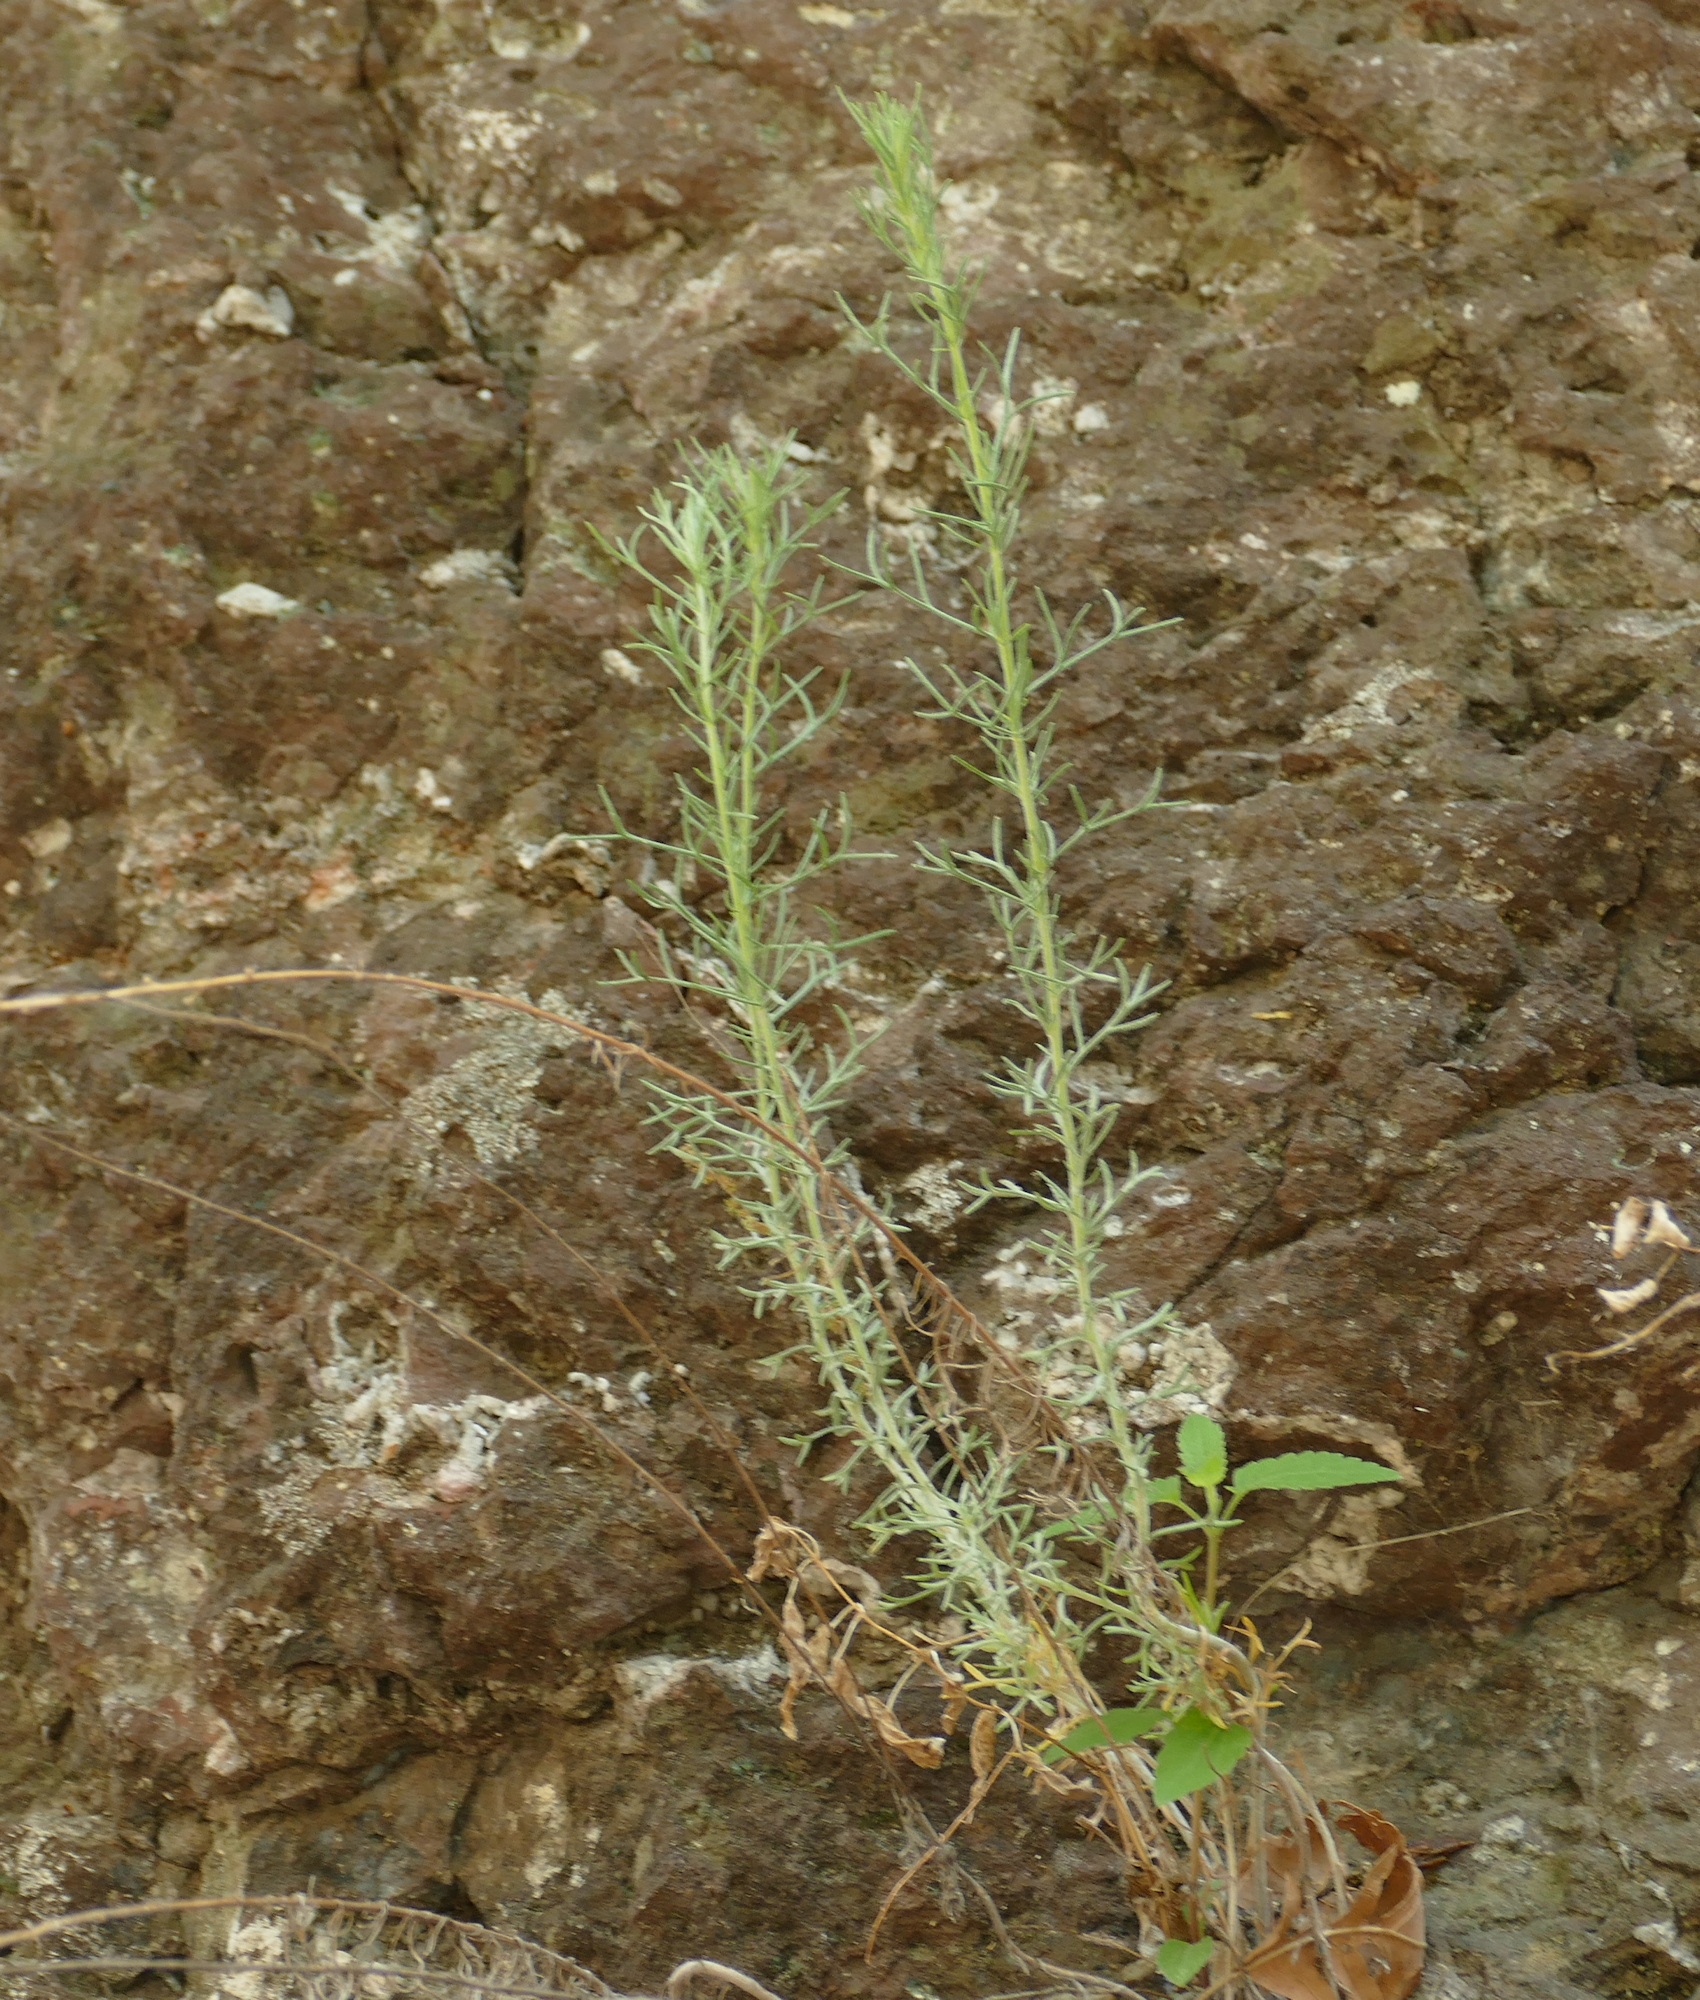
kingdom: Plantae
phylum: Tracheophyta
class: Magnoliopsida
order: Asterales
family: Asteraceae
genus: Artemisia
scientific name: Artemisia carruthii
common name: Carruth wormwood
